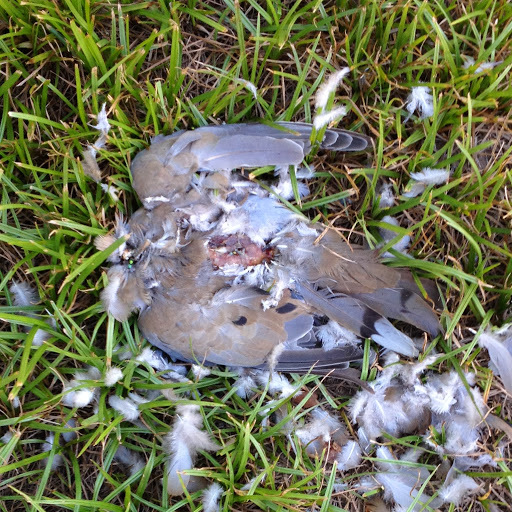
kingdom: Animalia
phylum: Chordata
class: Aves
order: Columbiformes
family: Columbidae
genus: Zenaida
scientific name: Zenaida macroura
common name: Mourning dove
